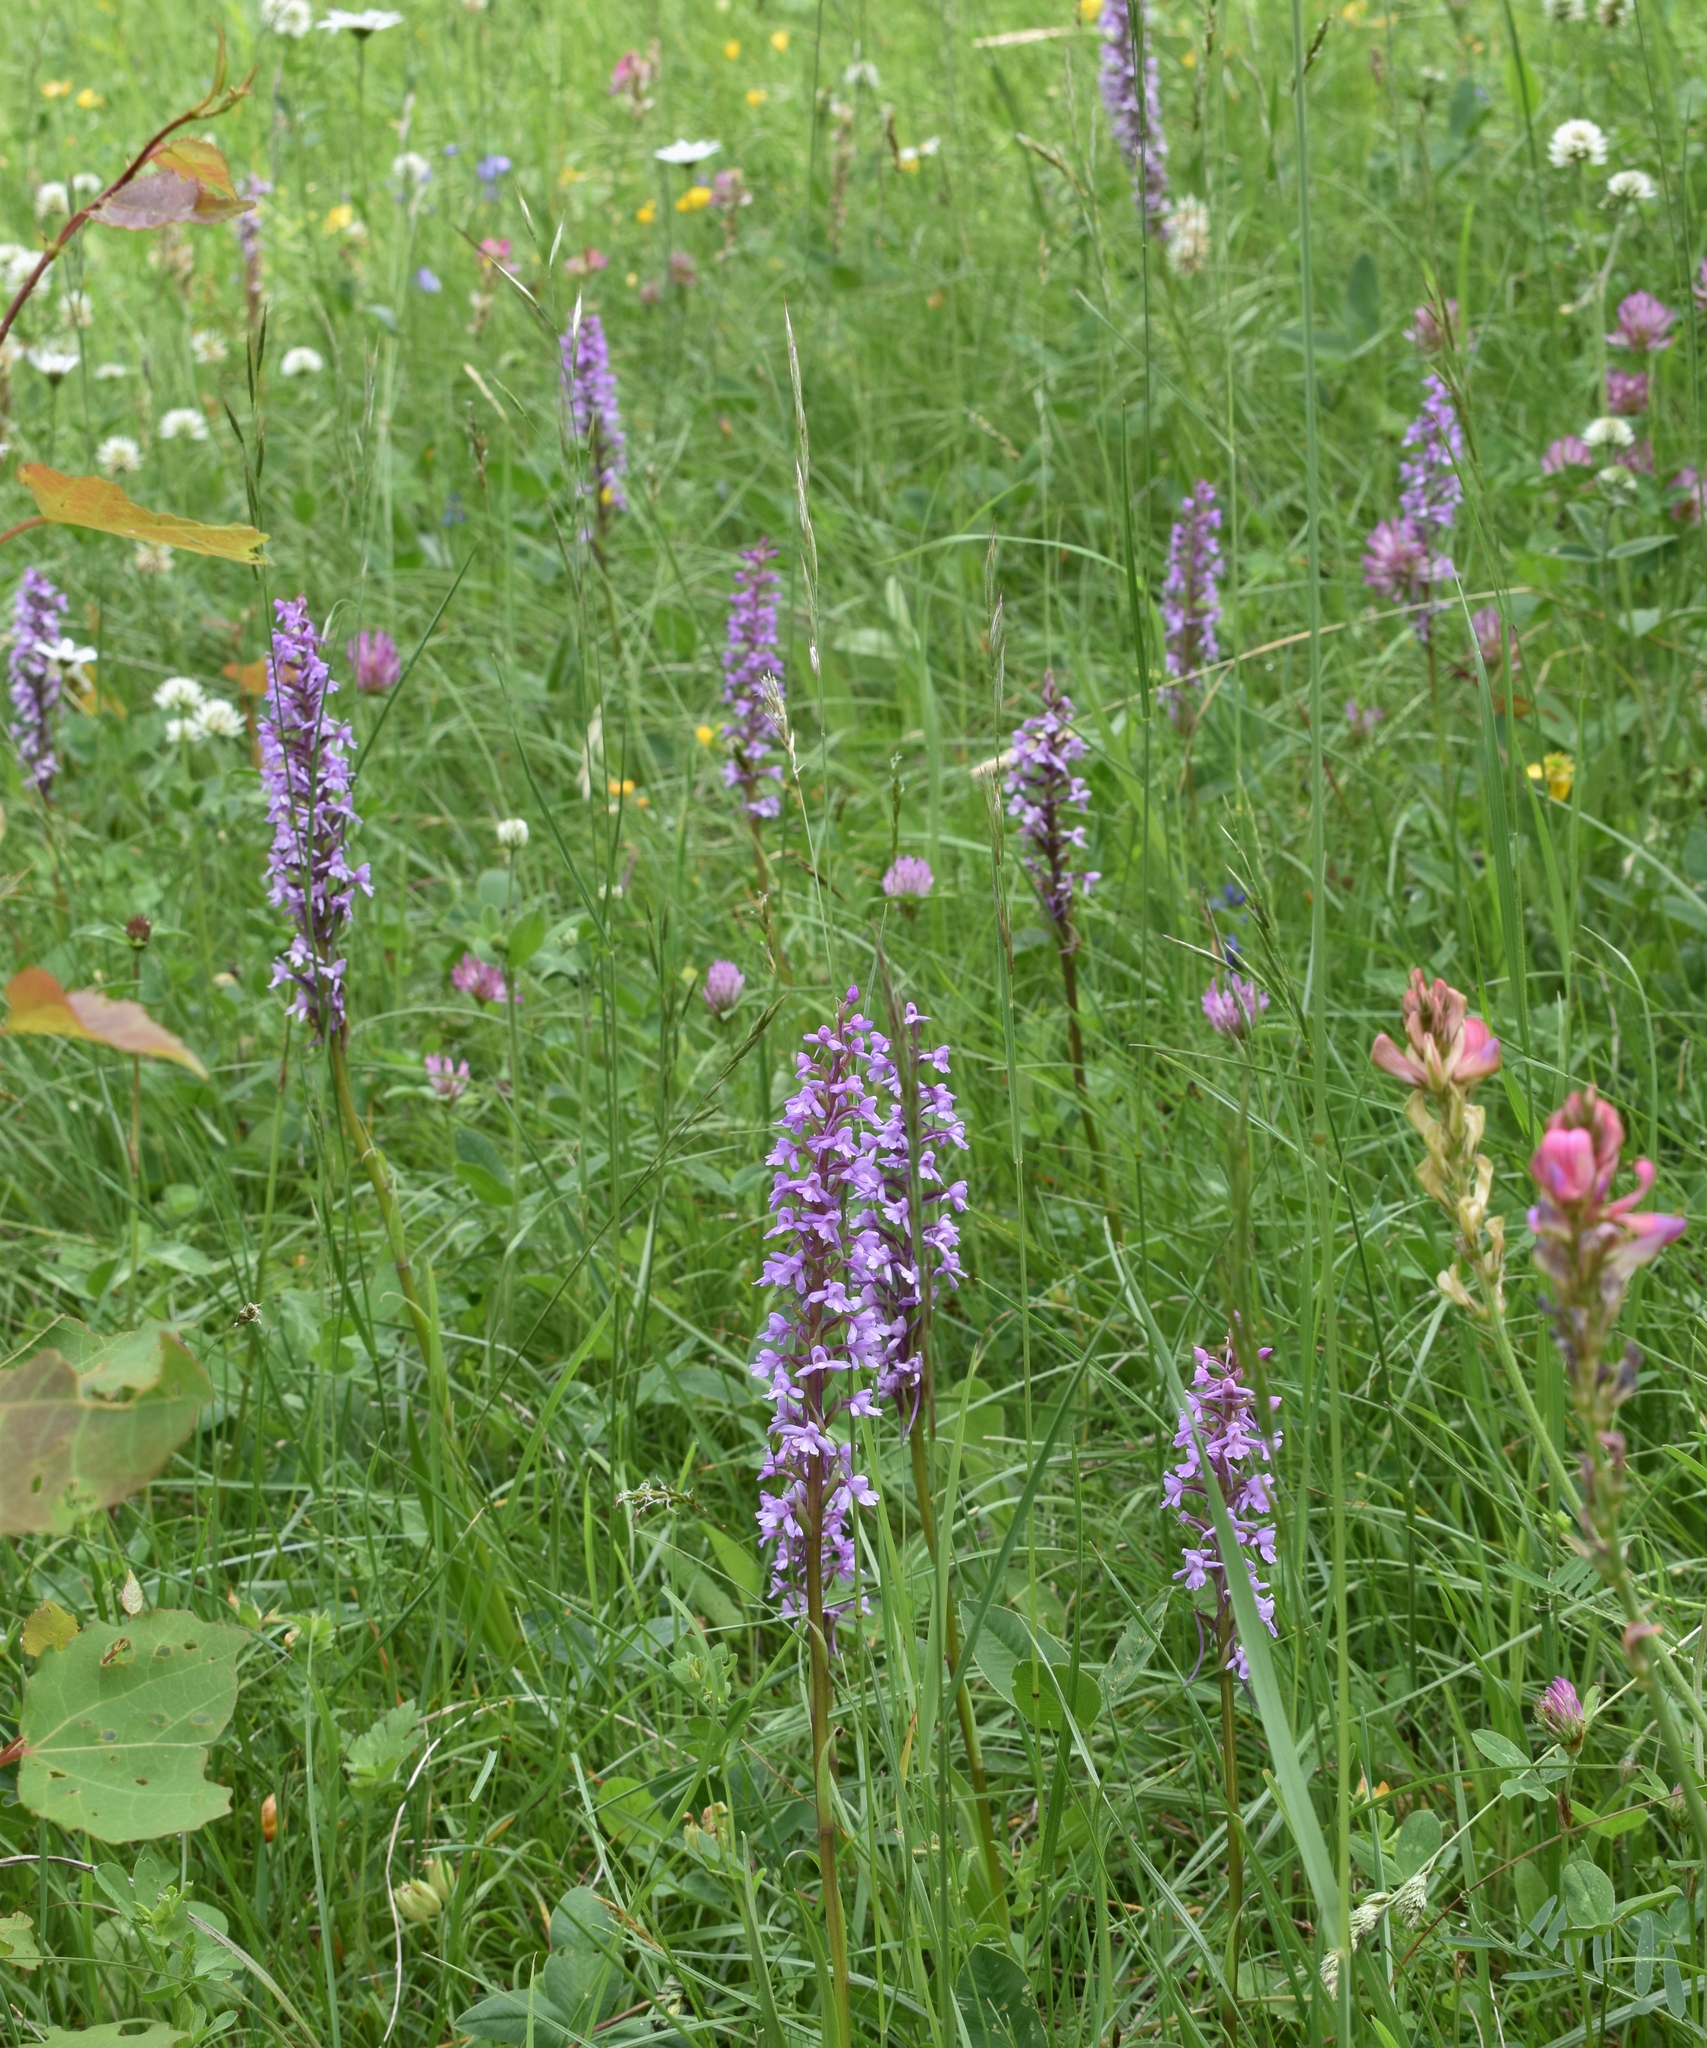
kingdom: Plantae
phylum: Tracheophyta
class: Liliopsida
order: Asparagales
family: Orchidaceae
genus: Gymnadenia
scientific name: Gymnadenia conopsea
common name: Fragrant orchid
